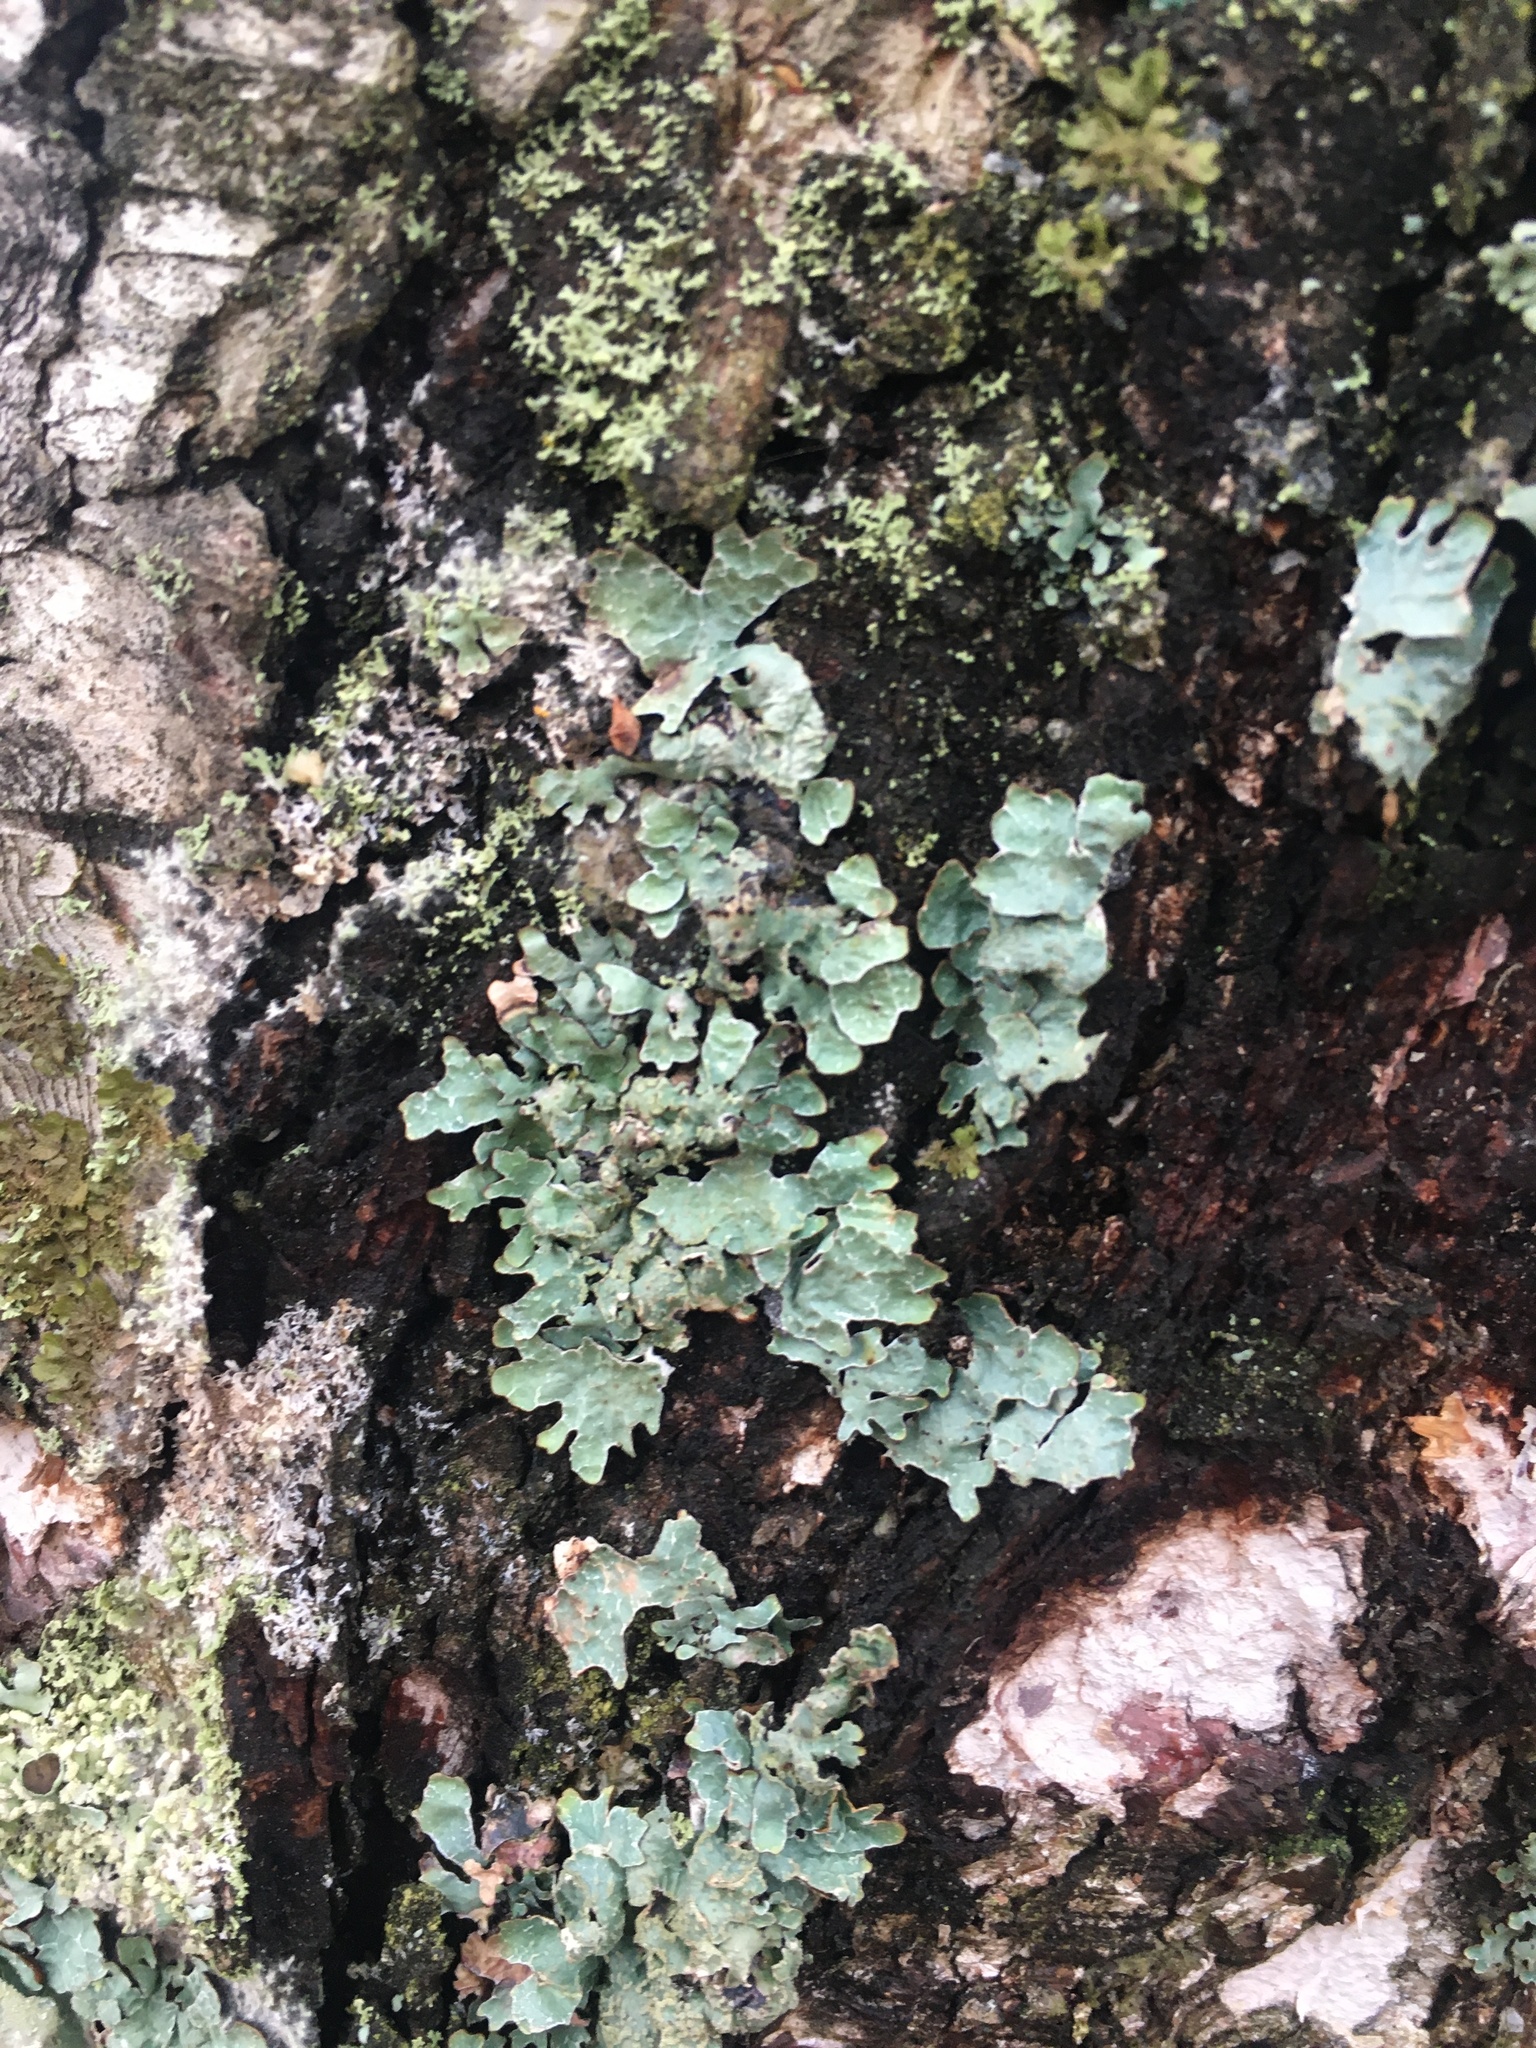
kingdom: Fungi
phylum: Ascomycota
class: Lecanoromycetes
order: Lecanorales
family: Parmeliaceae
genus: Parmelia
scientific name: Parmelia sulcata
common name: Netted shield lichen
